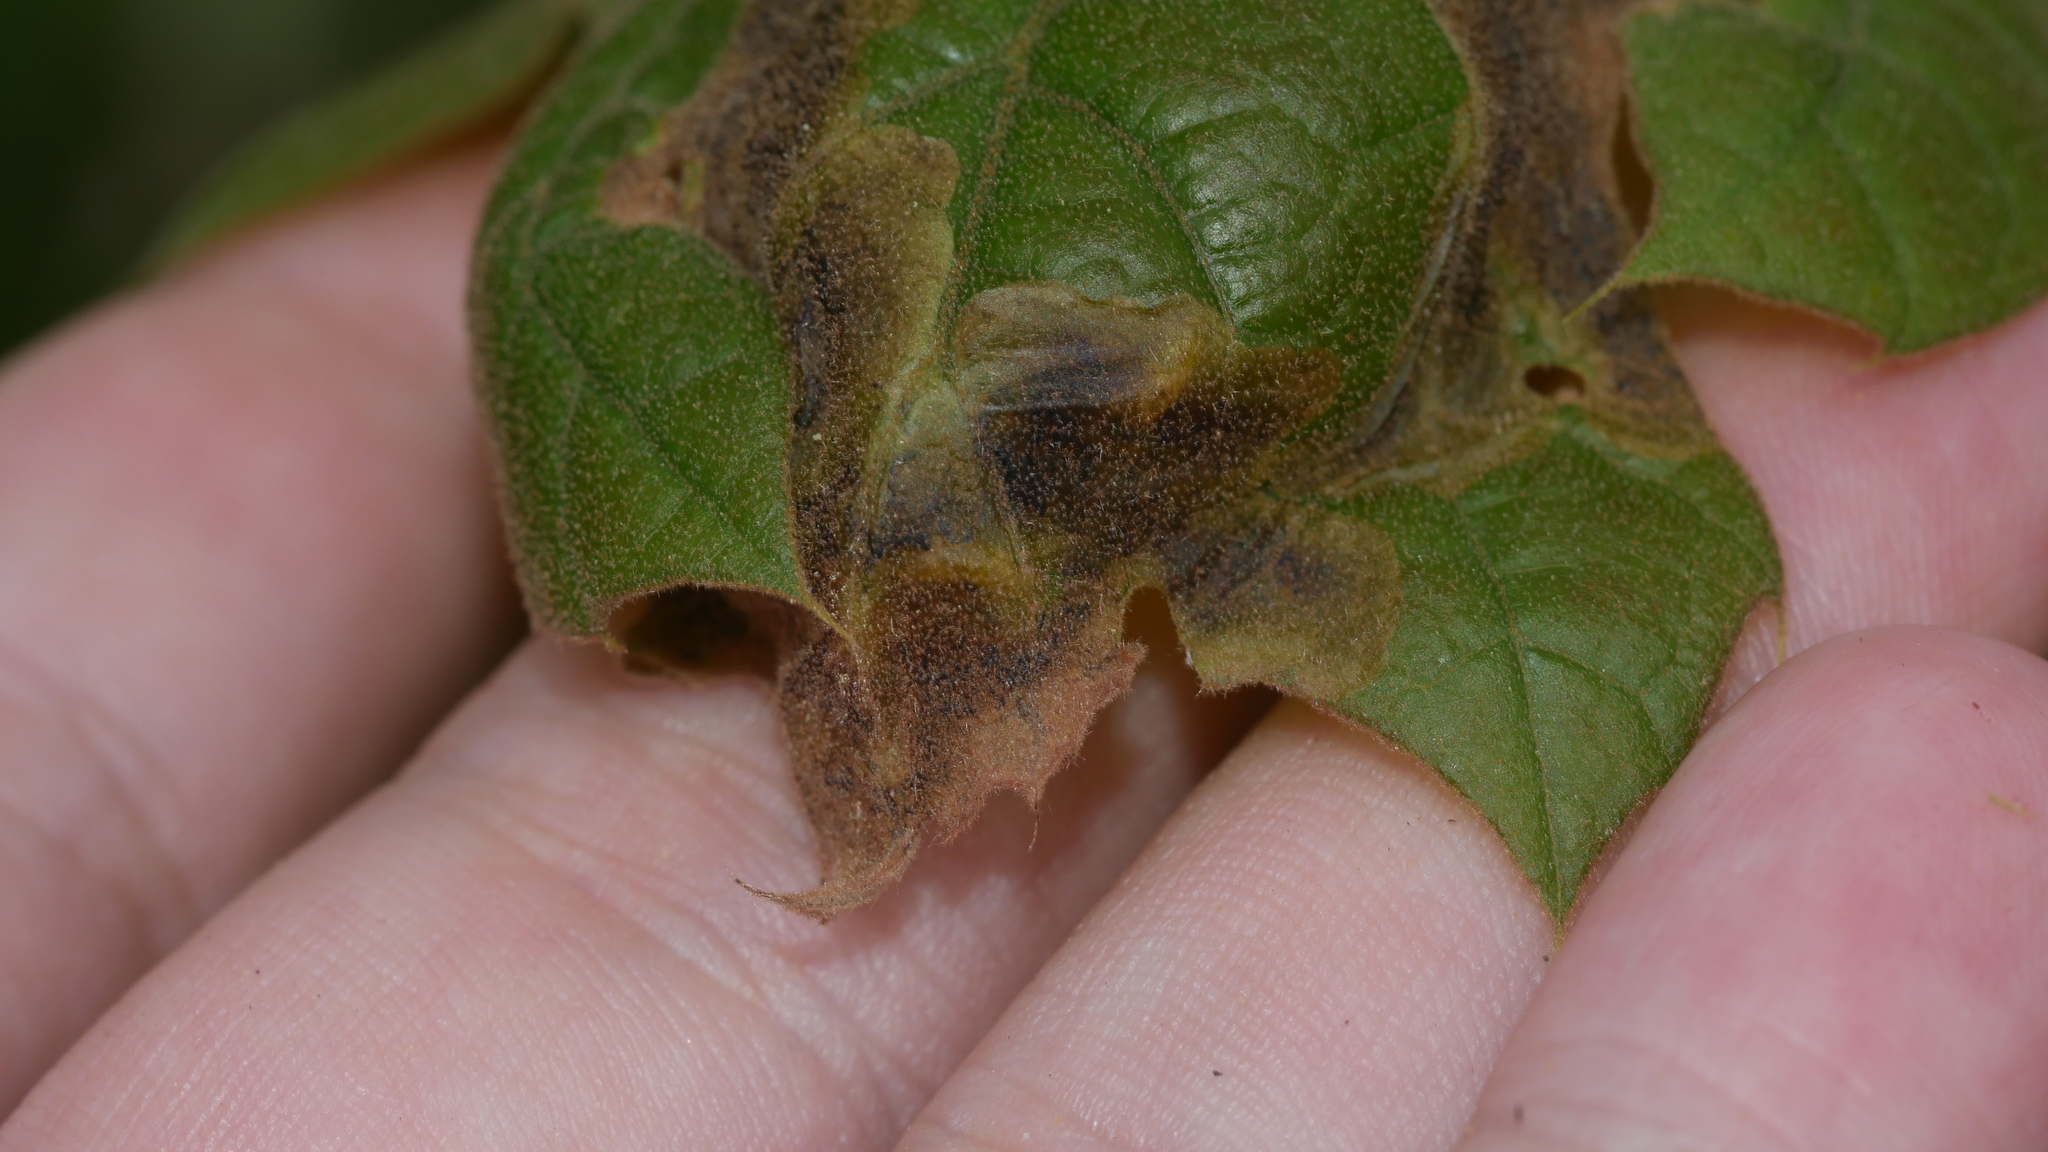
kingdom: Animalia
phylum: Arthropoda
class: Insecta
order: Diptera
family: Agromyzidae
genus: Japanagromyza
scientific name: Japanagromyza viridula
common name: Oak shothole leafminer
